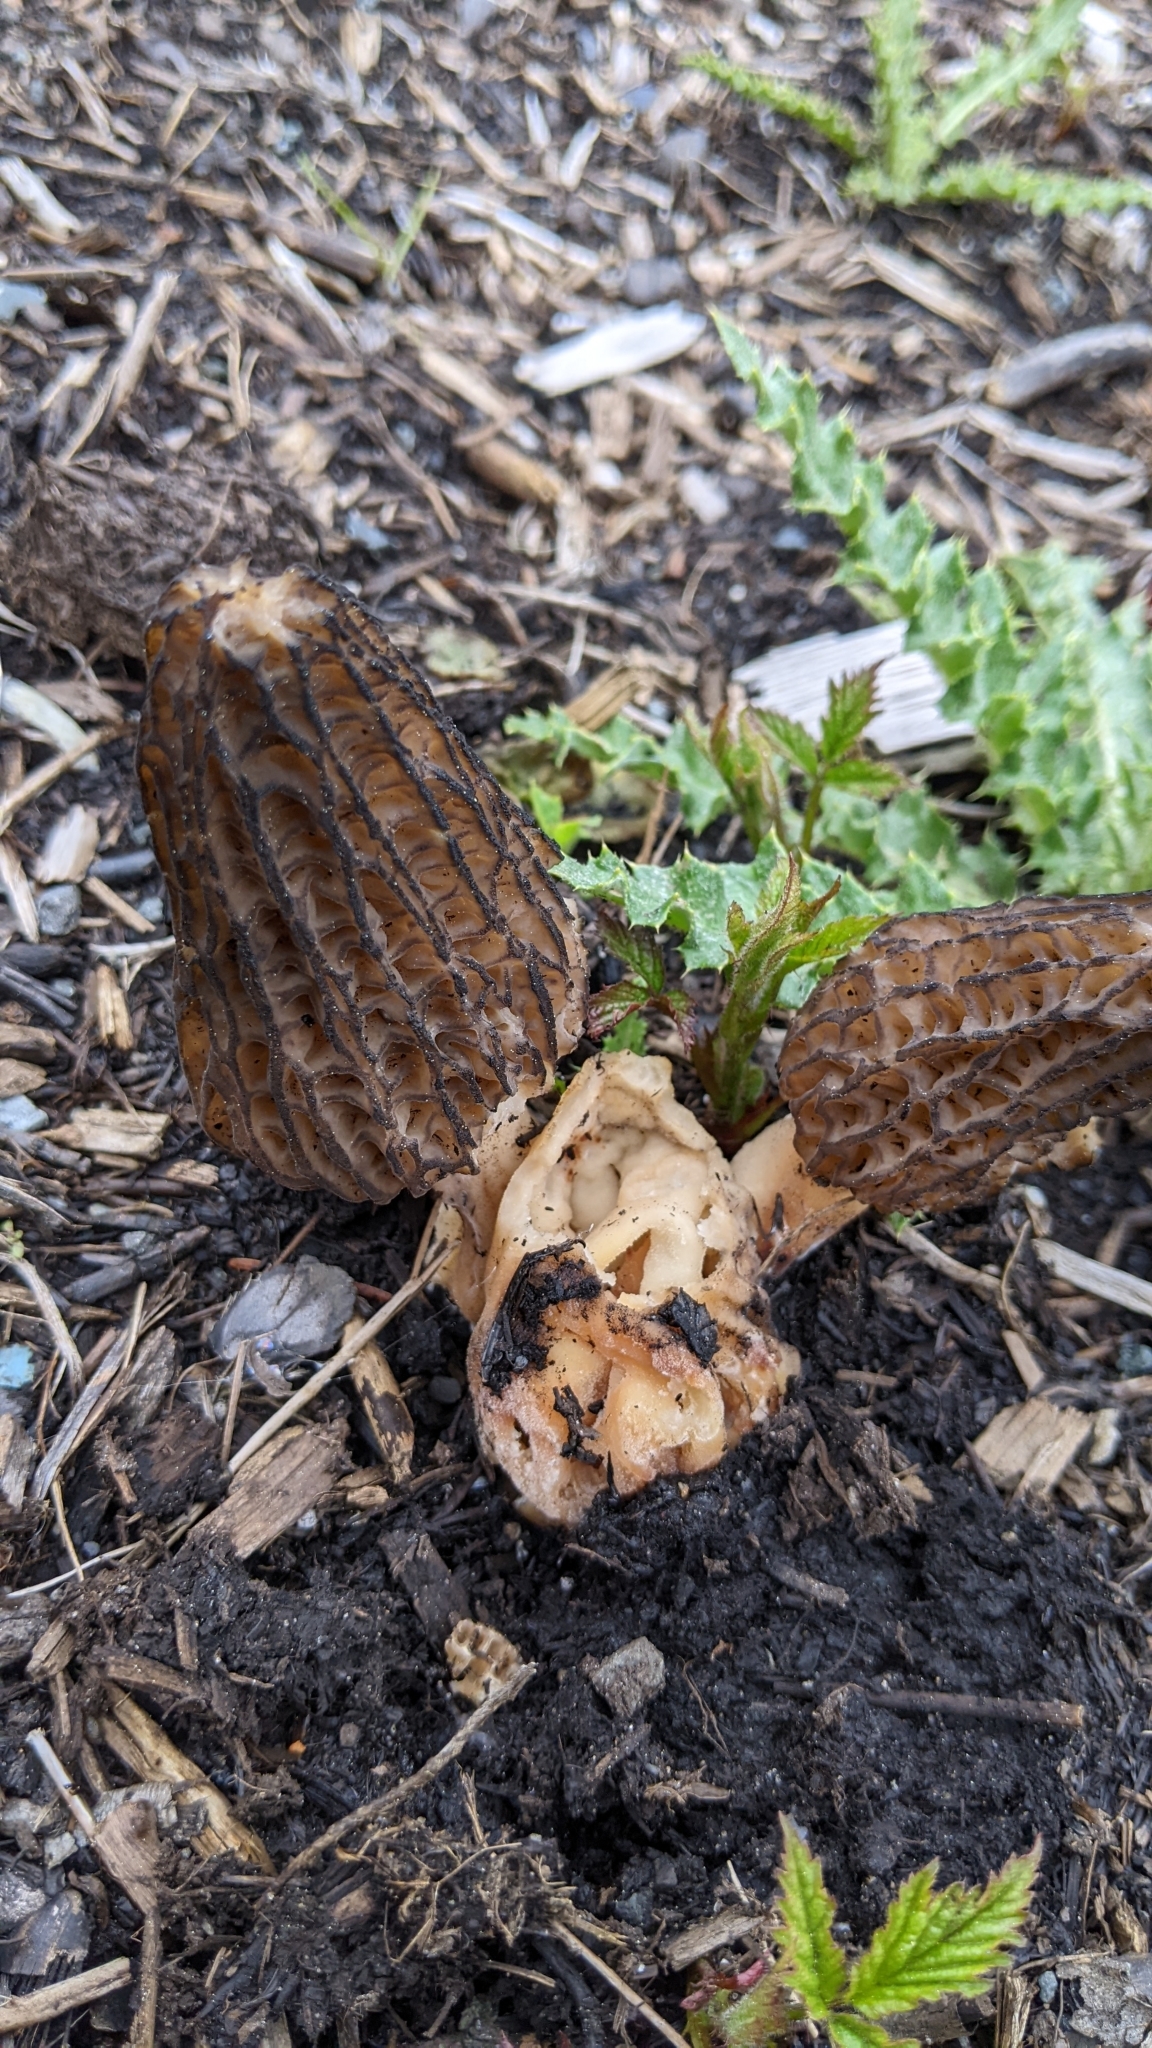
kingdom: Fungi
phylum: Ascomycota
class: Pezizomycetes
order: Pezizales
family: Morchellaceae
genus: Morchella
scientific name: Morchella importuna
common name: Landscaping black morel
